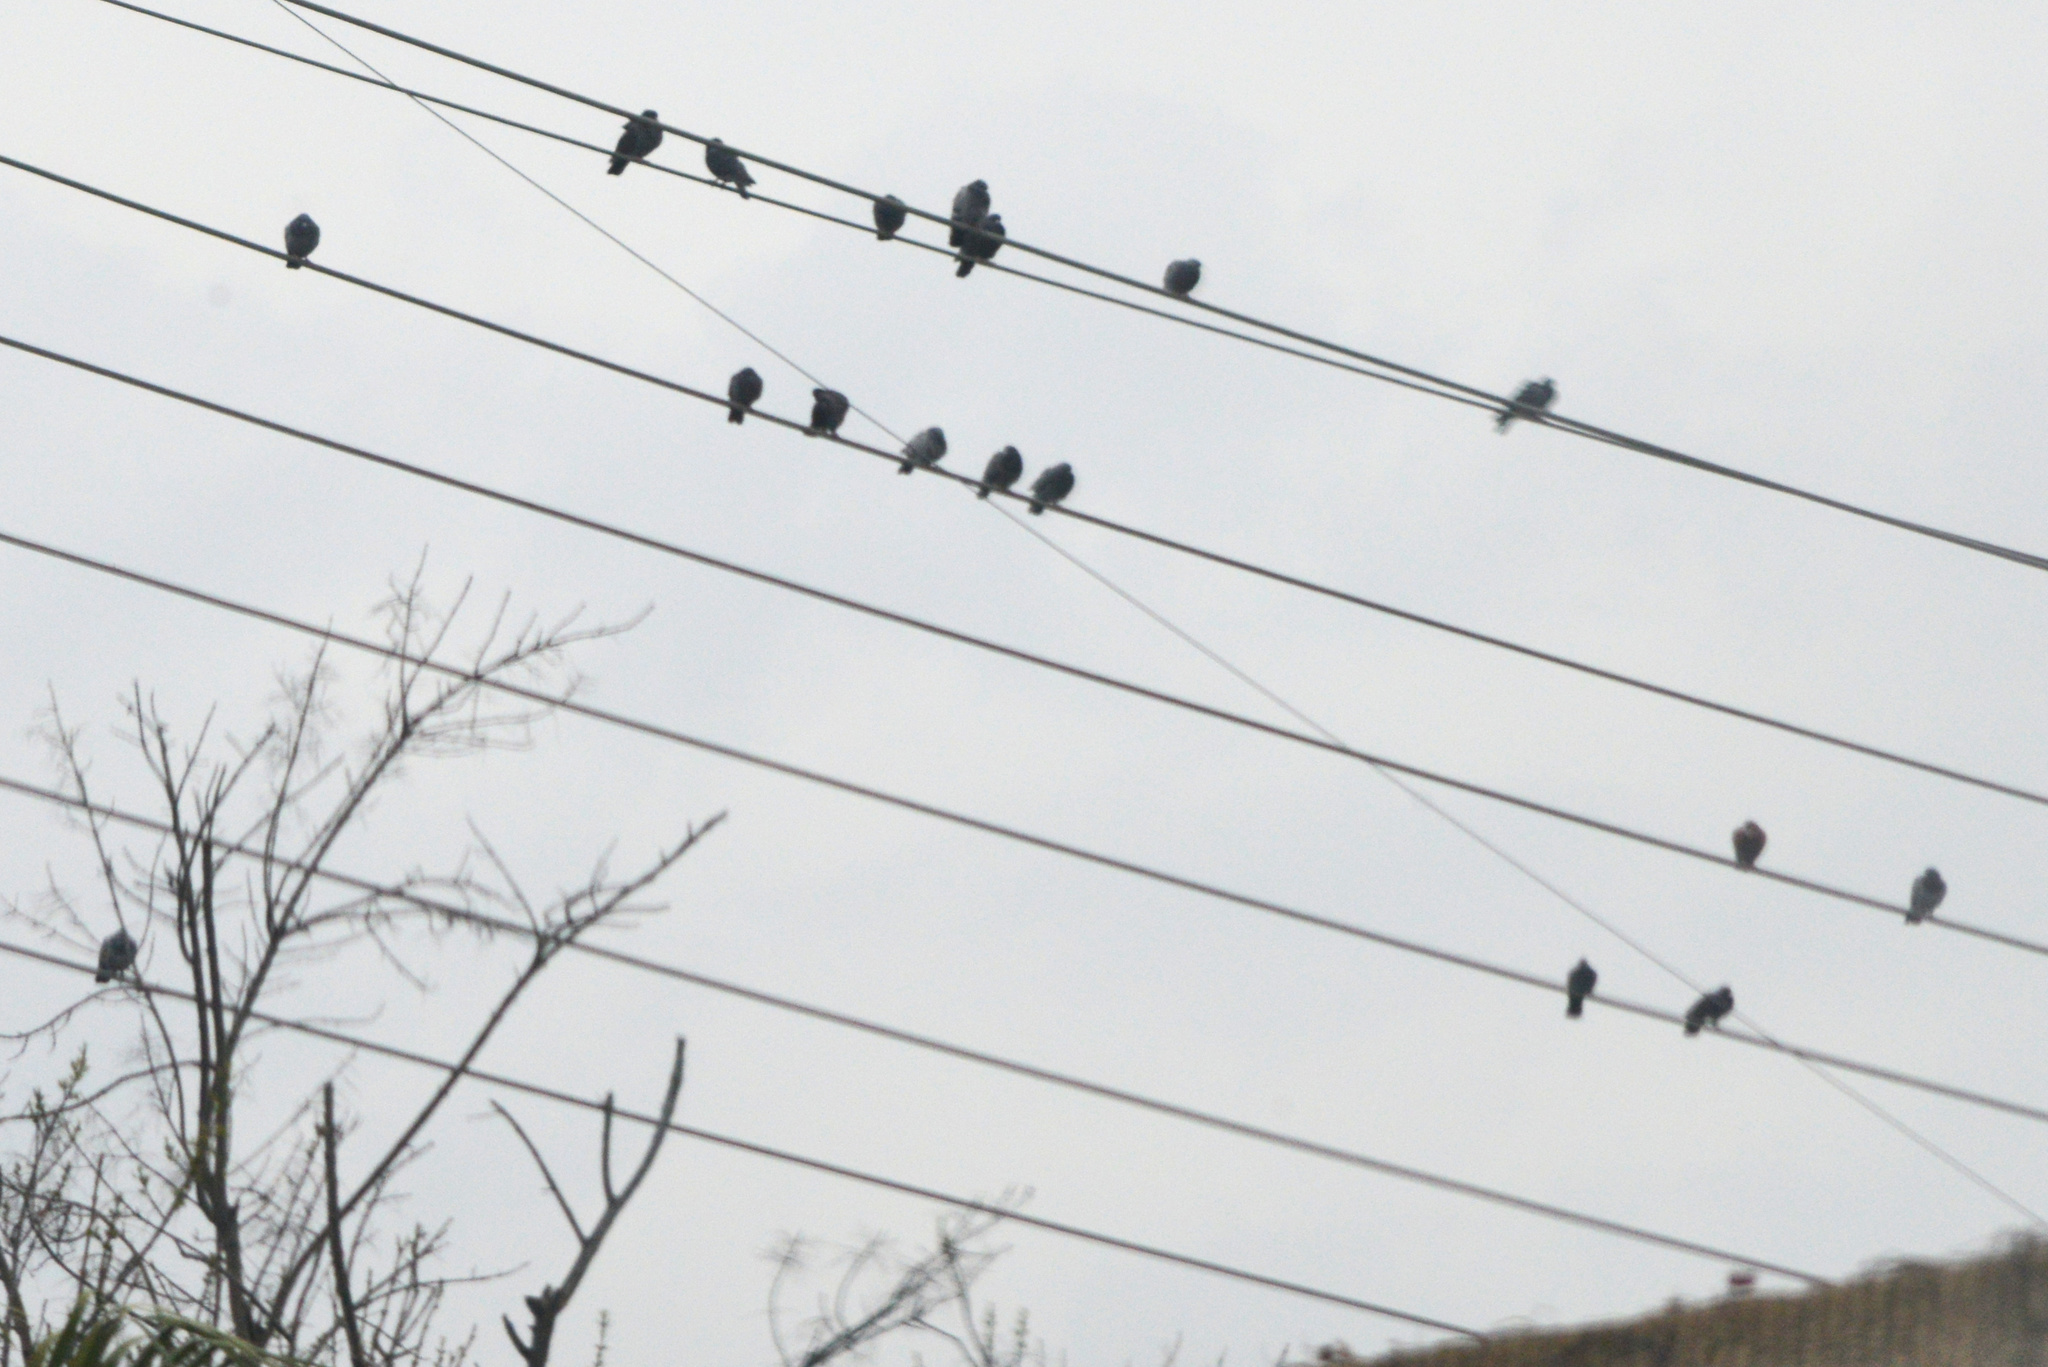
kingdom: Animalia
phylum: Chordata
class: Aves
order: Columbiformes
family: Columbidae
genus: Columba
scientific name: Columba livia
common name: Rock pigeon
